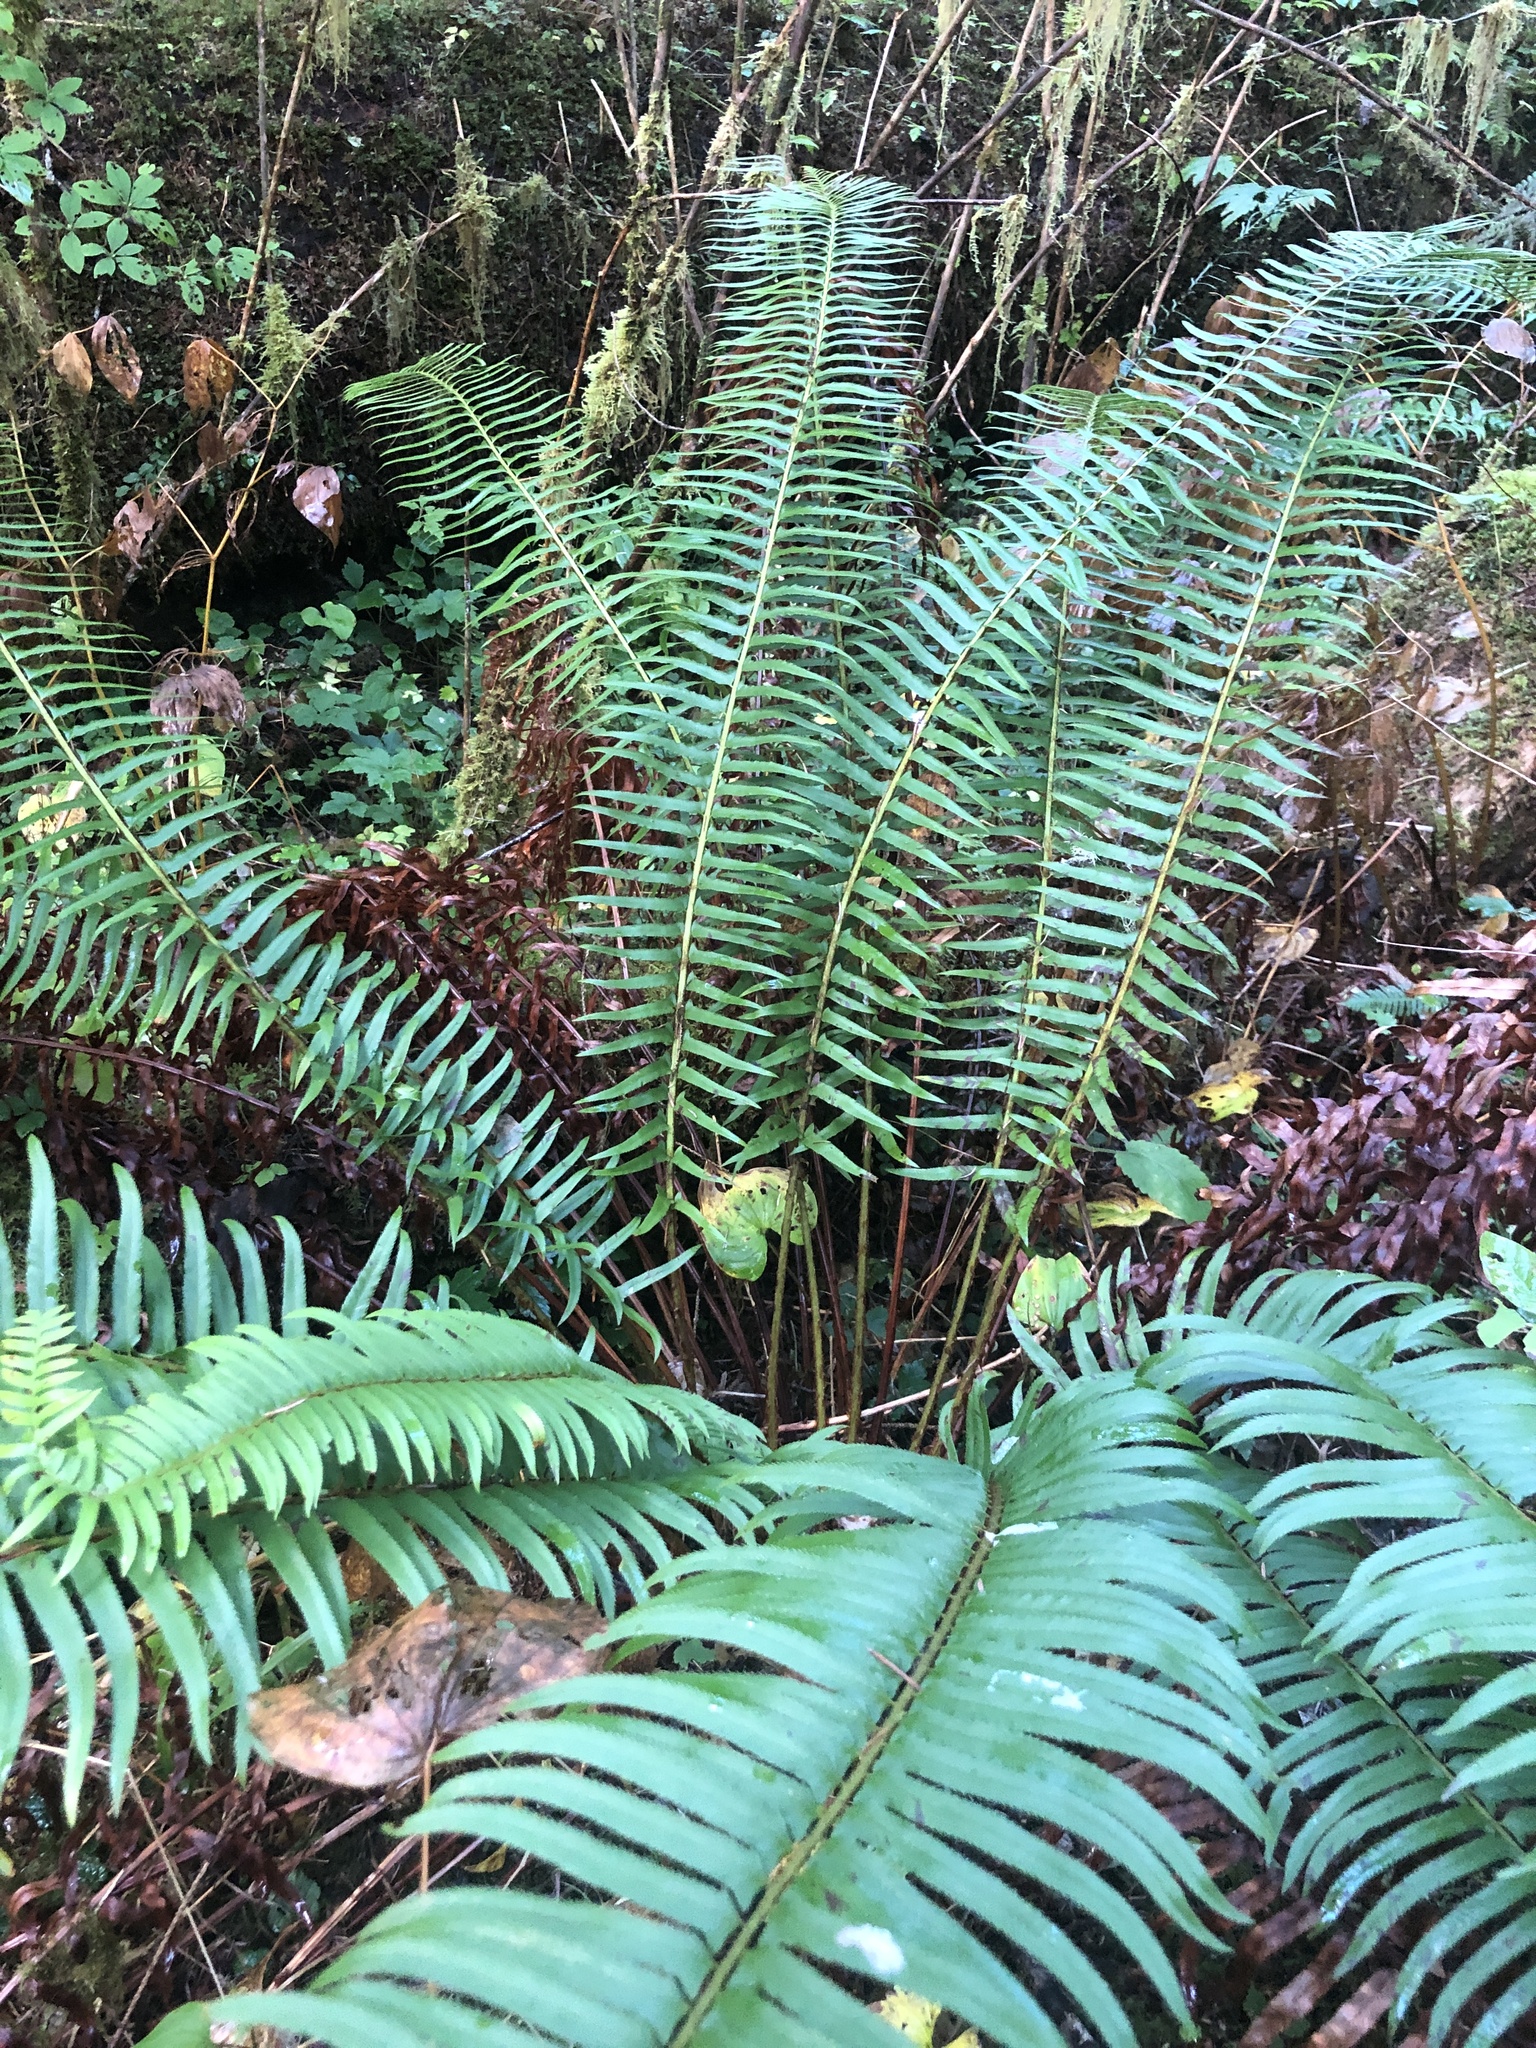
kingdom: Plantae
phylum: Tracheophyta
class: Polypodiopsida
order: Polypodiales
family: Dryopteridaceae
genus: Polystichum
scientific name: Polystichum munitum
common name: Western sword-fern
